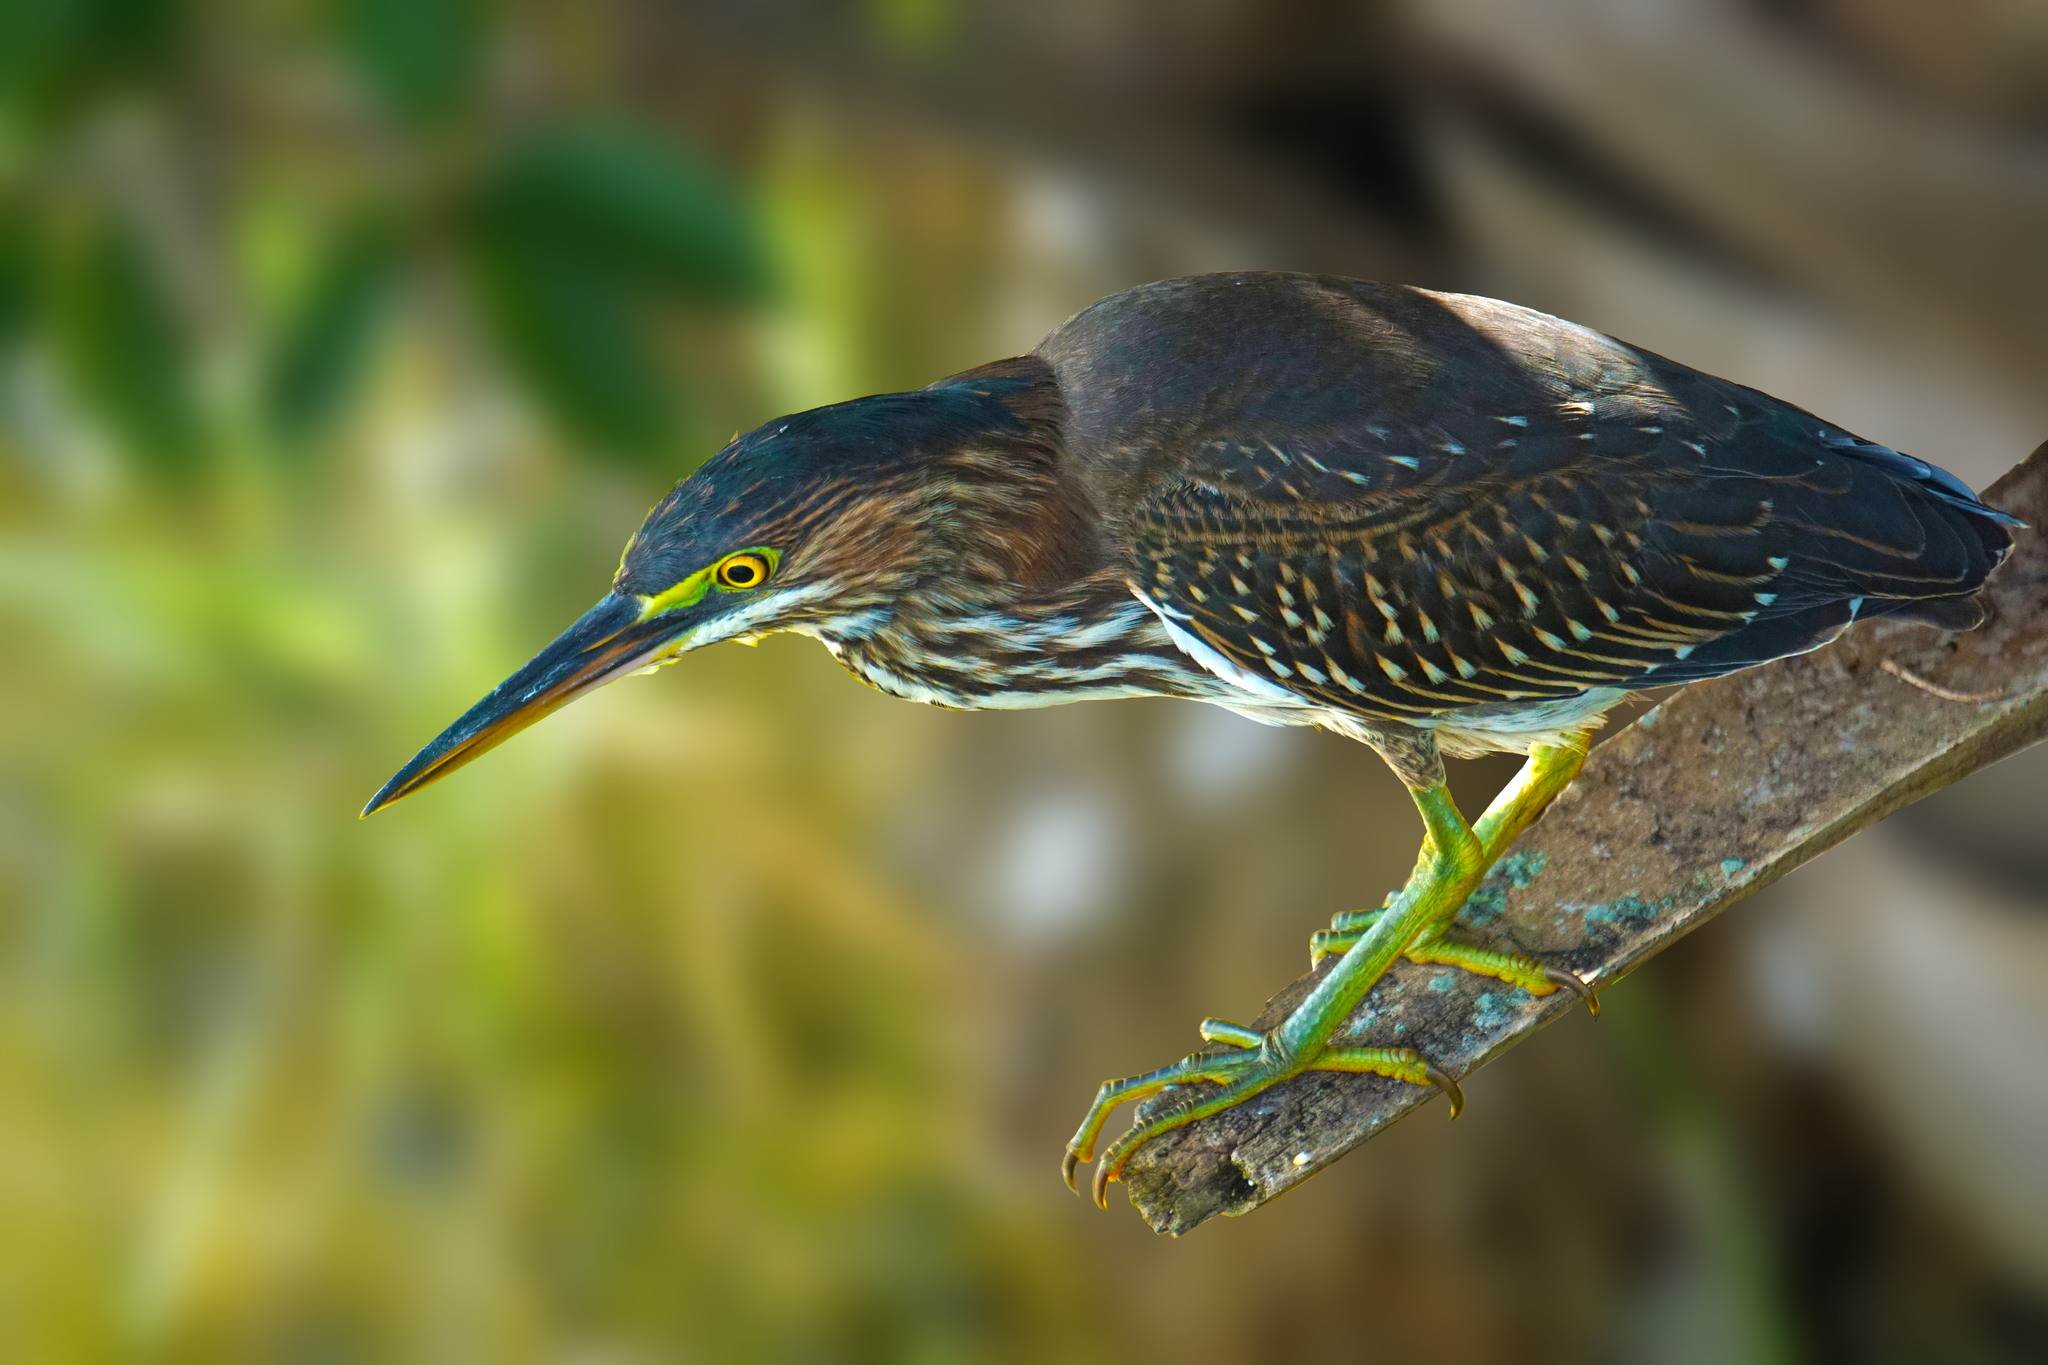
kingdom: Animalia
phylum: Chordata
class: Aves
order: Pelecaniformes
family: Ardeidae
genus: Butorides
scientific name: Butorides virescens
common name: Green heron
